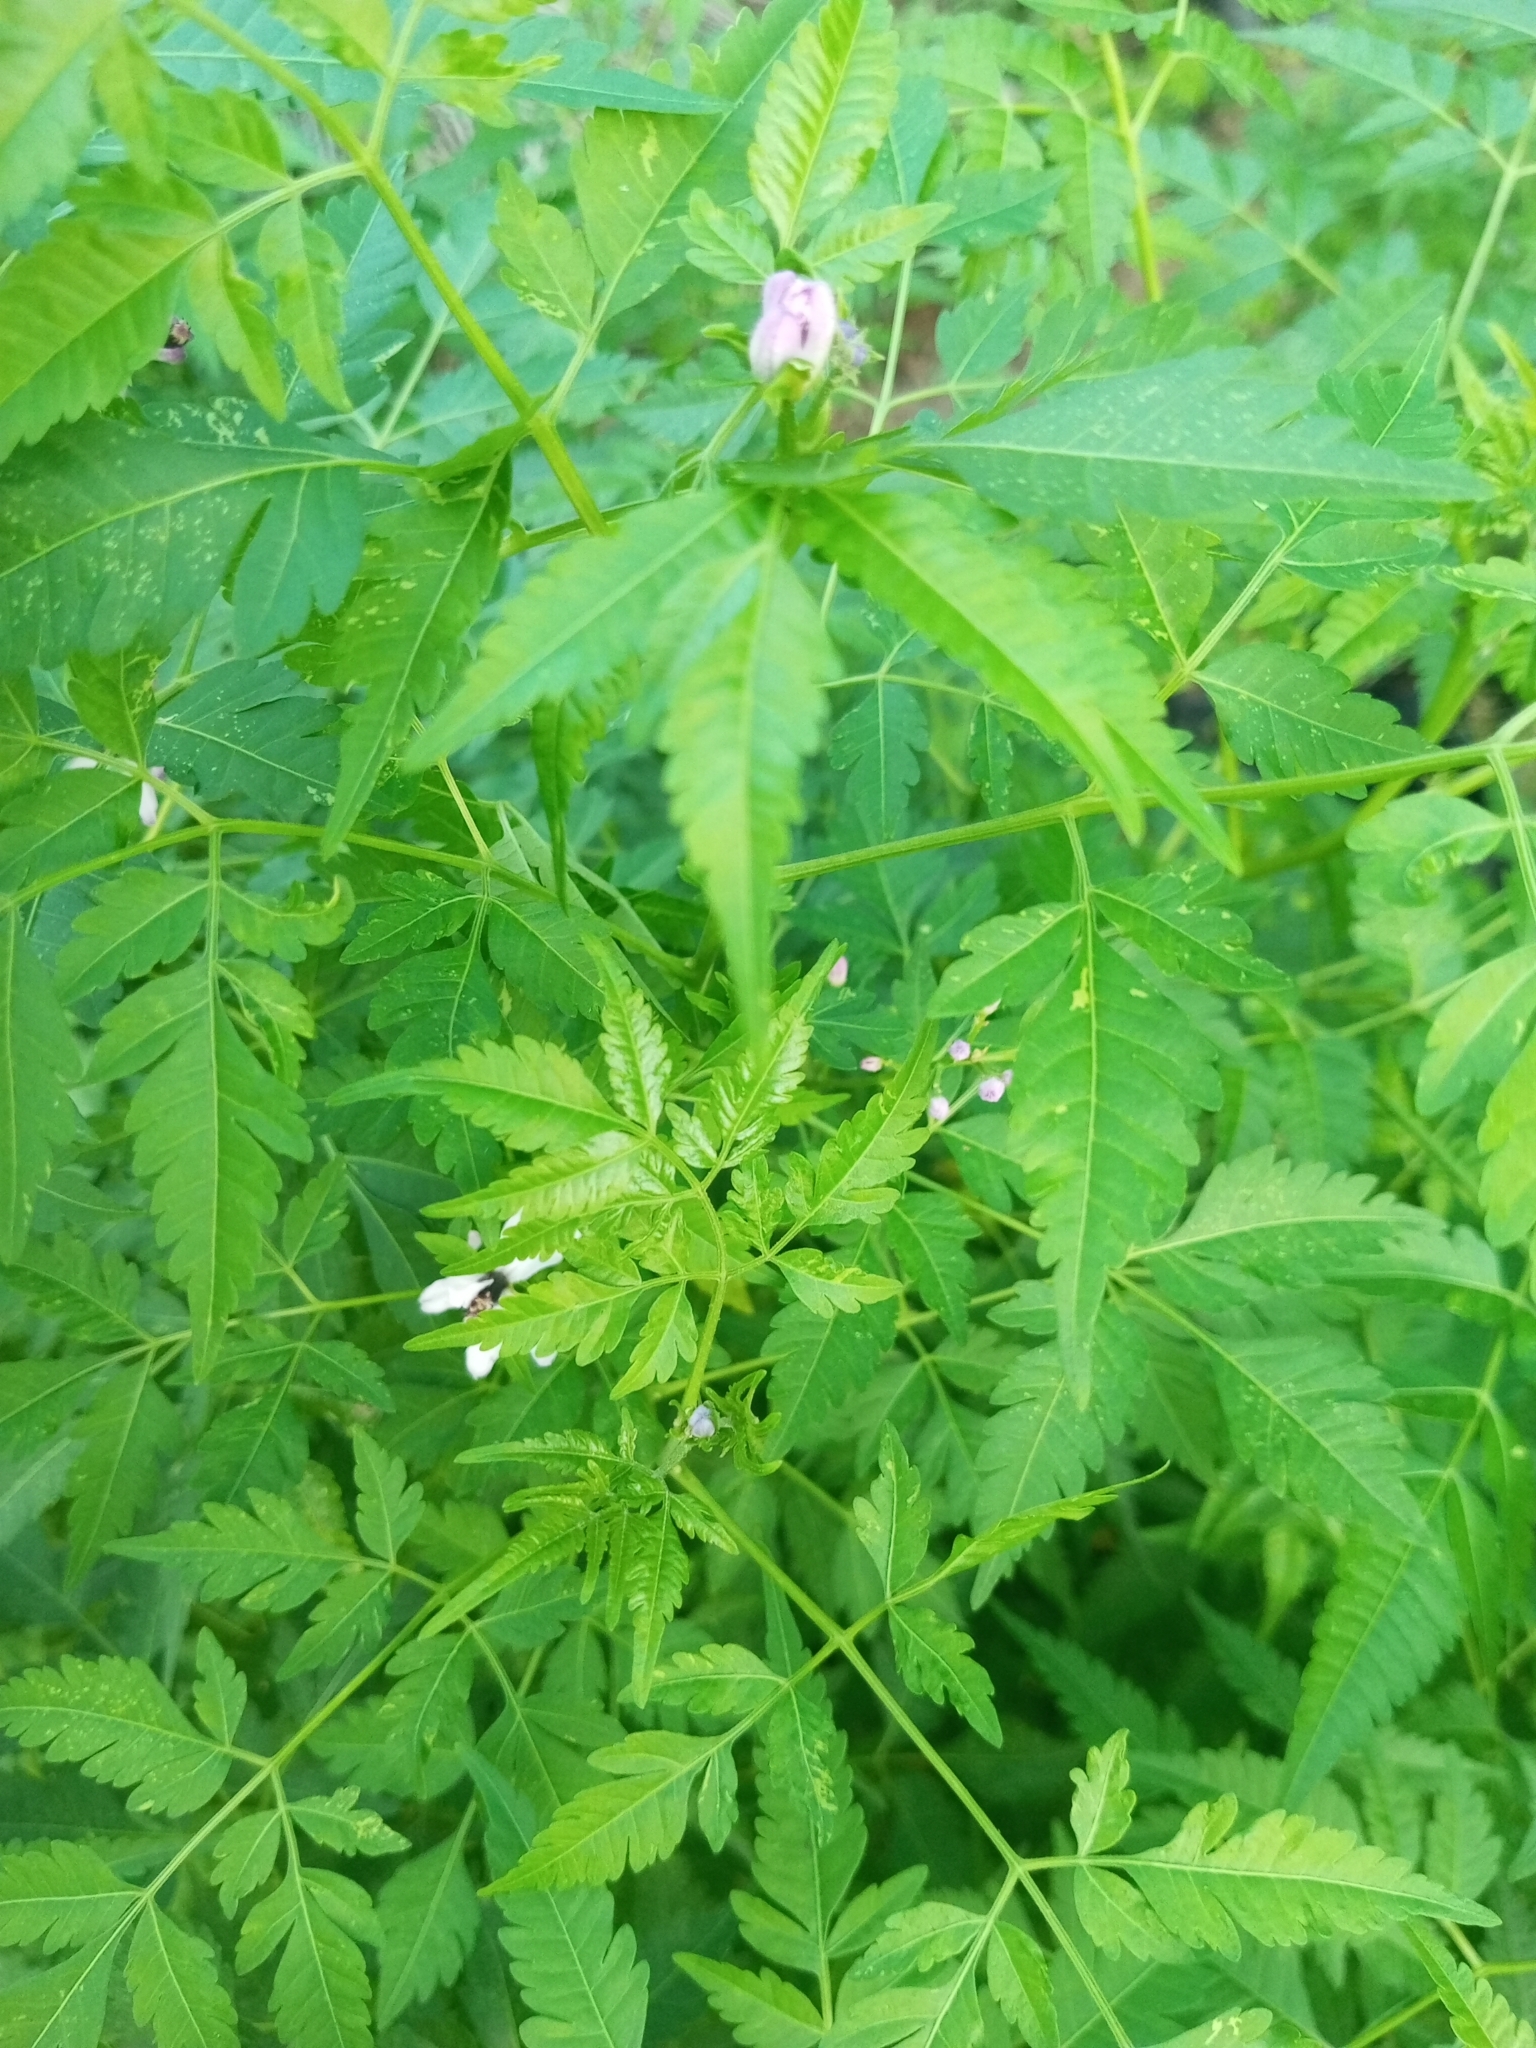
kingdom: Plantae
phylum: Tracheophyta
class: Magnoliopsida
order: Sapindales
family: Meliaceae
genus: Melia
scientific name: Melia azedarach
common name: Chinaberrytree
